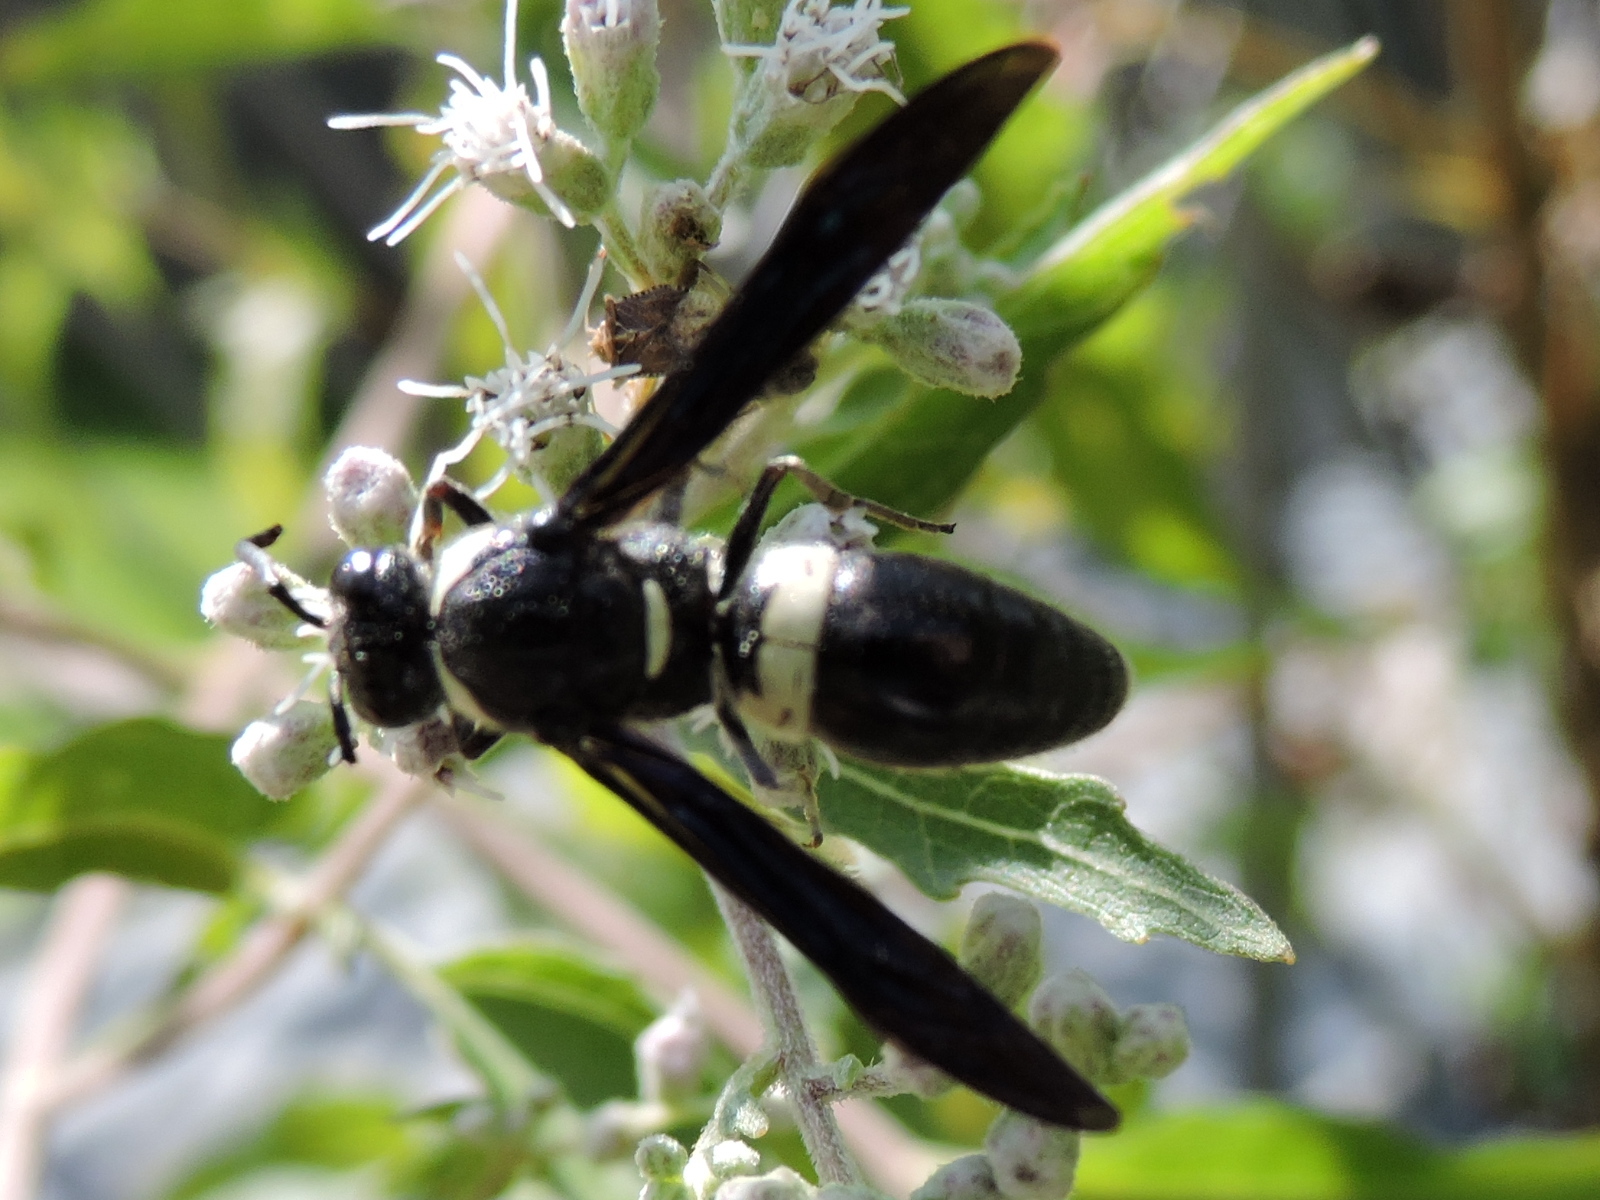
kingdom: Animalia
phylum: Arthropoda
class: Insecta
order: Hymenoptera
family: Eumenidae
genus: Monobia
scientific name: Monobia quadridens
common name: Four-toothed mason wasp
